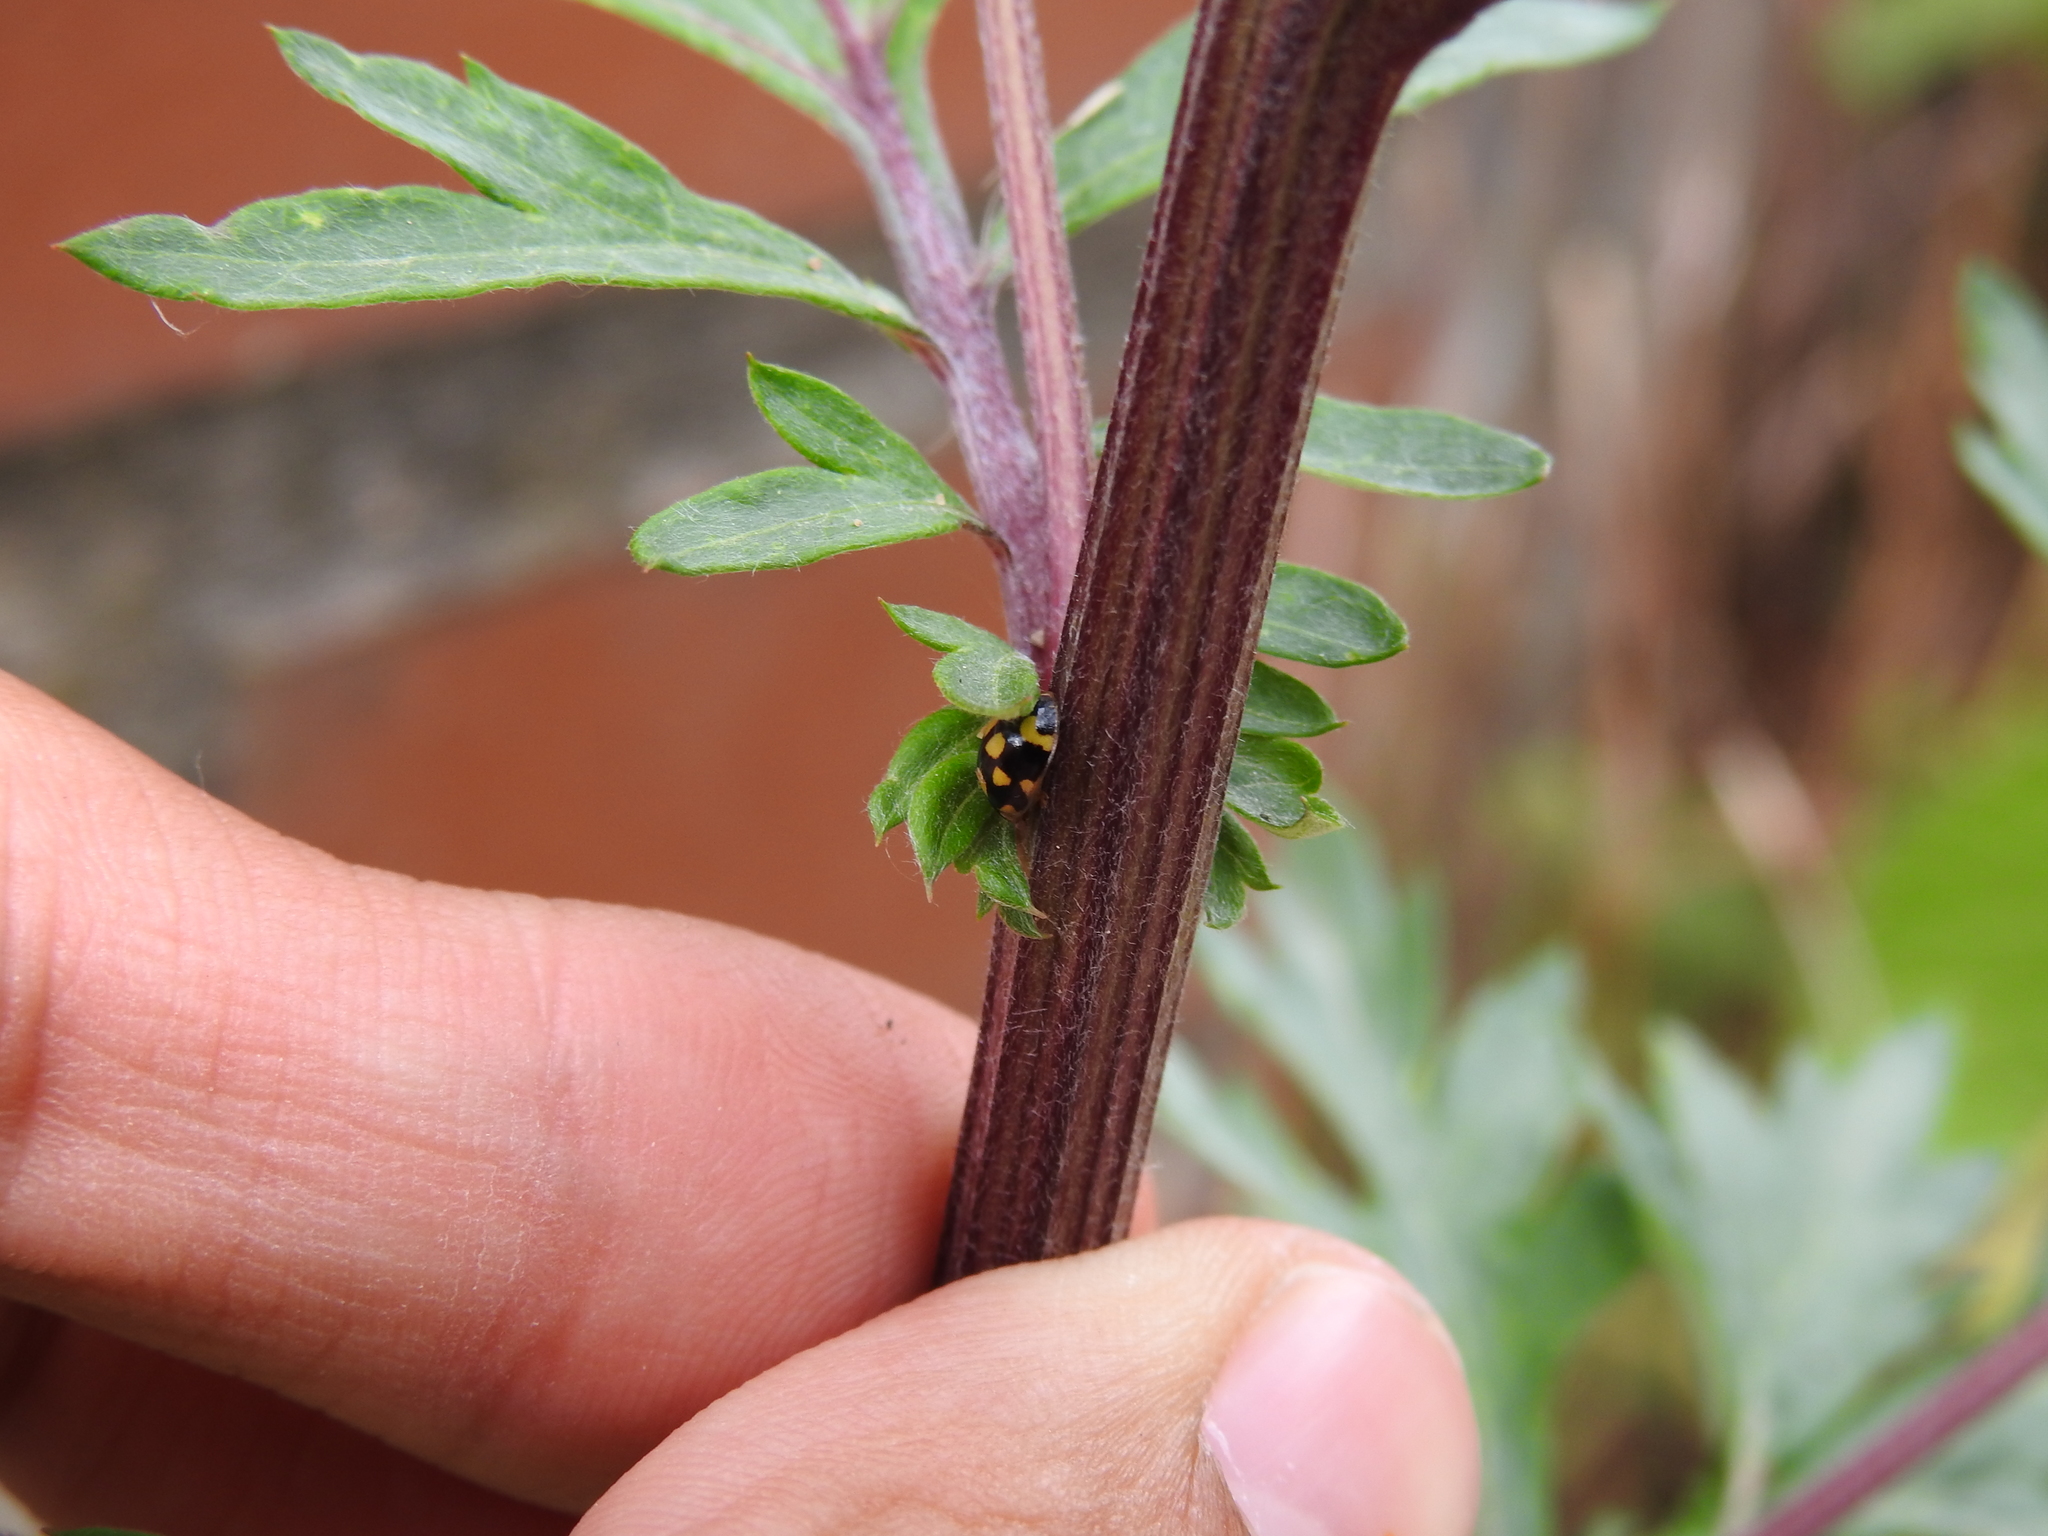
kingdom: Animalia
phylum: Arthropoda
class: Insecta
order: Coleoptera
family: Coccinellidae
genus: Propylaea
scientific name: Propylaea quatuordecimpunctata
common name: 14-spotted ladybird beetle
